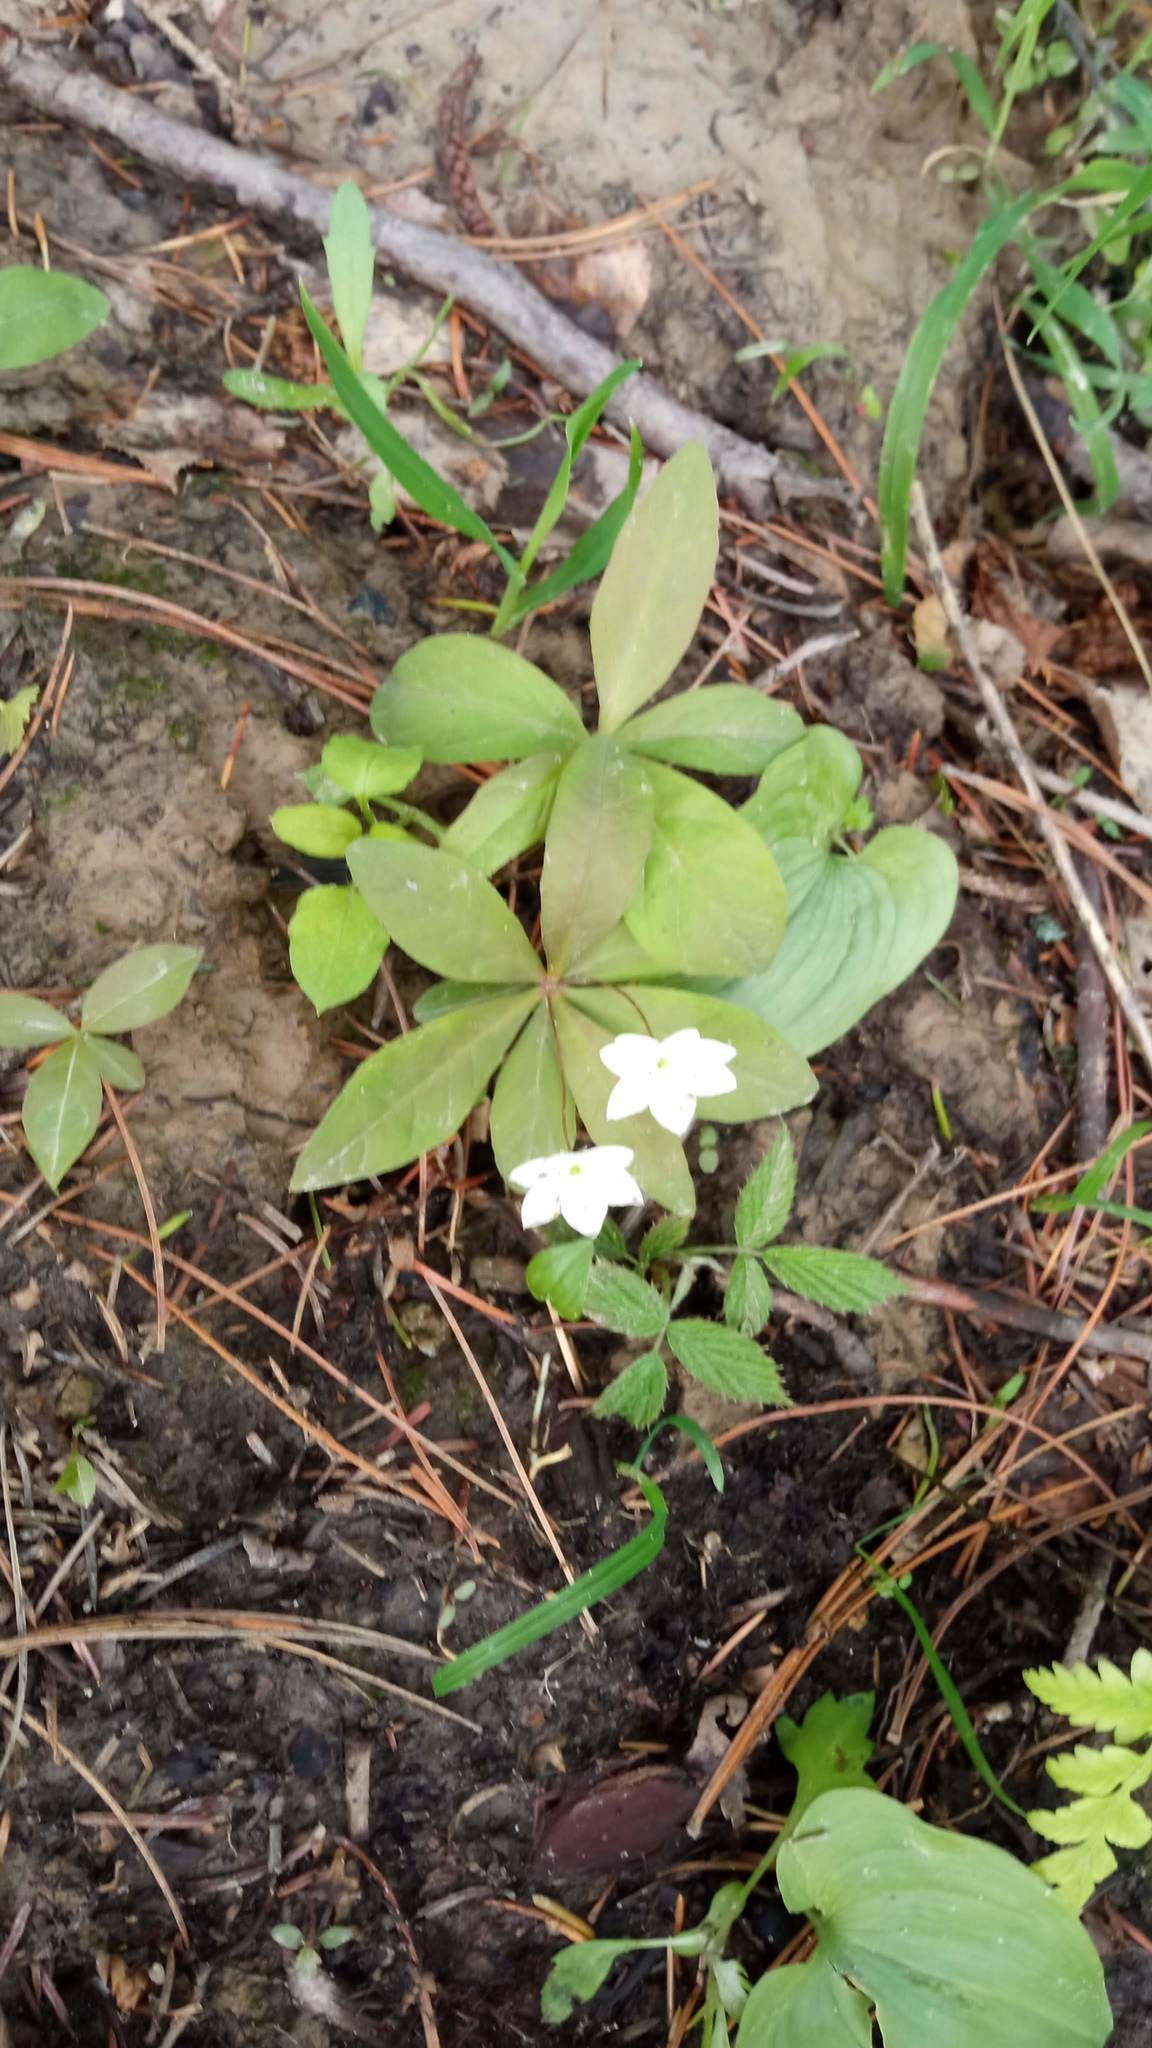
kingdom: Plantae
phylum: Tracheophyta
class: Magnoliopsida
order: Ericales
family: Primulaceae
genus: Lysimachia
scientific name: Lysimachia europaea
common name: Arctic starflower
